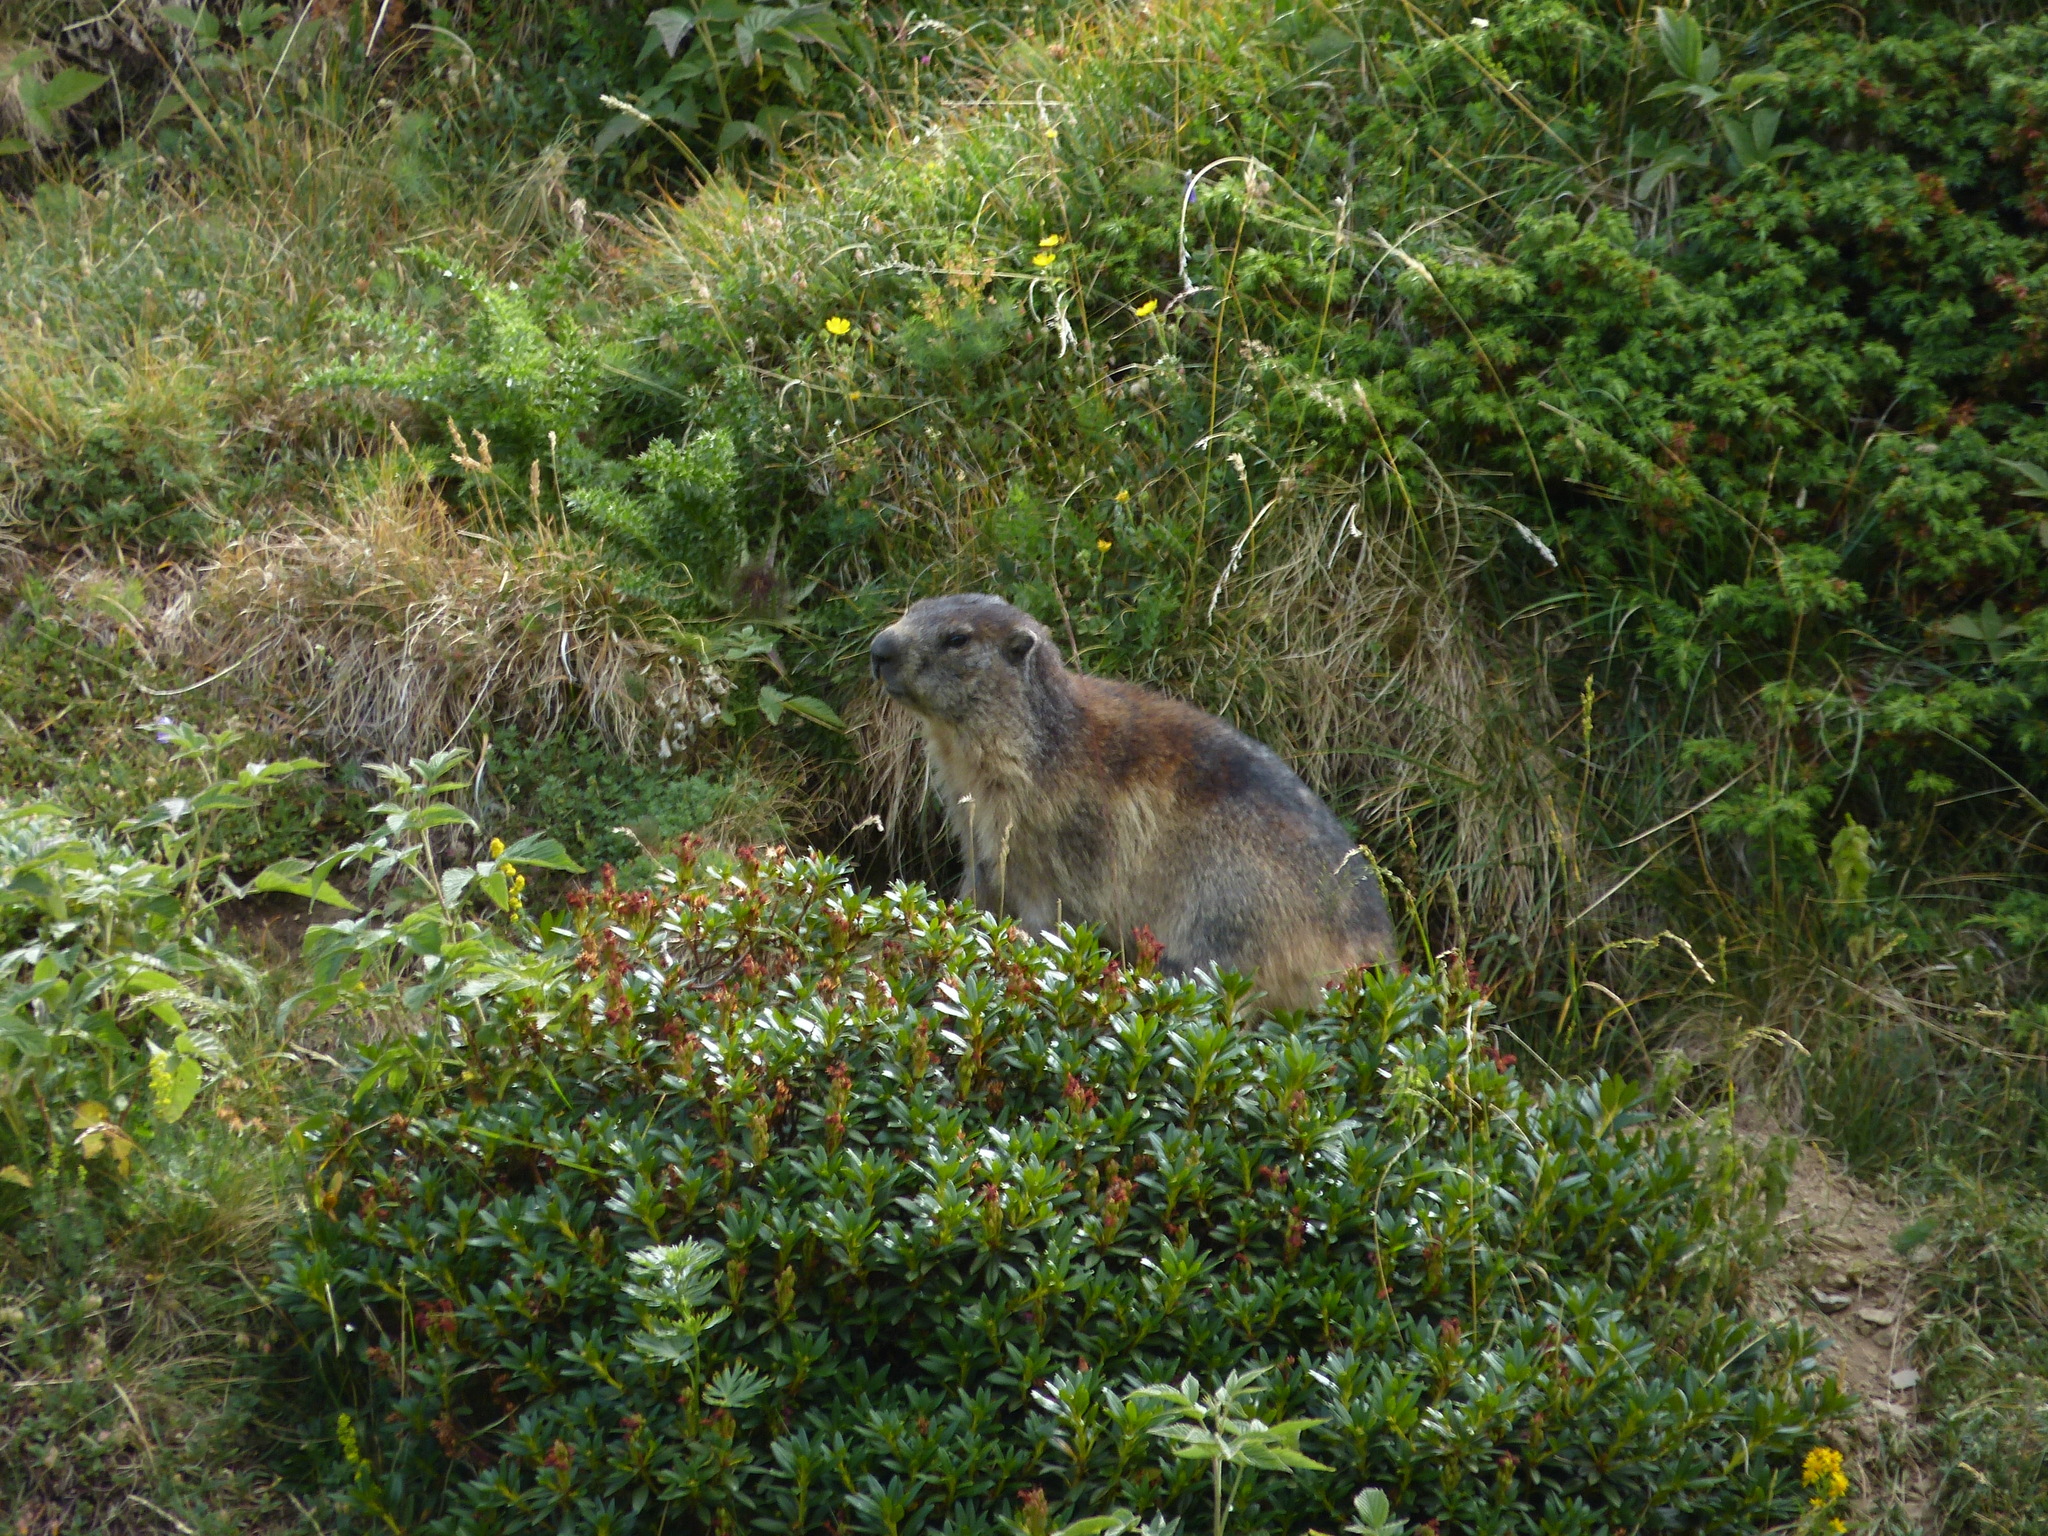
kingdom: Animalia
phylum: Chordata
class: Mammalia
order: Rodentia
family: Sciuridae
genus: Marmota
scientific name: Marmota marmota
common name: Alpine marmot
